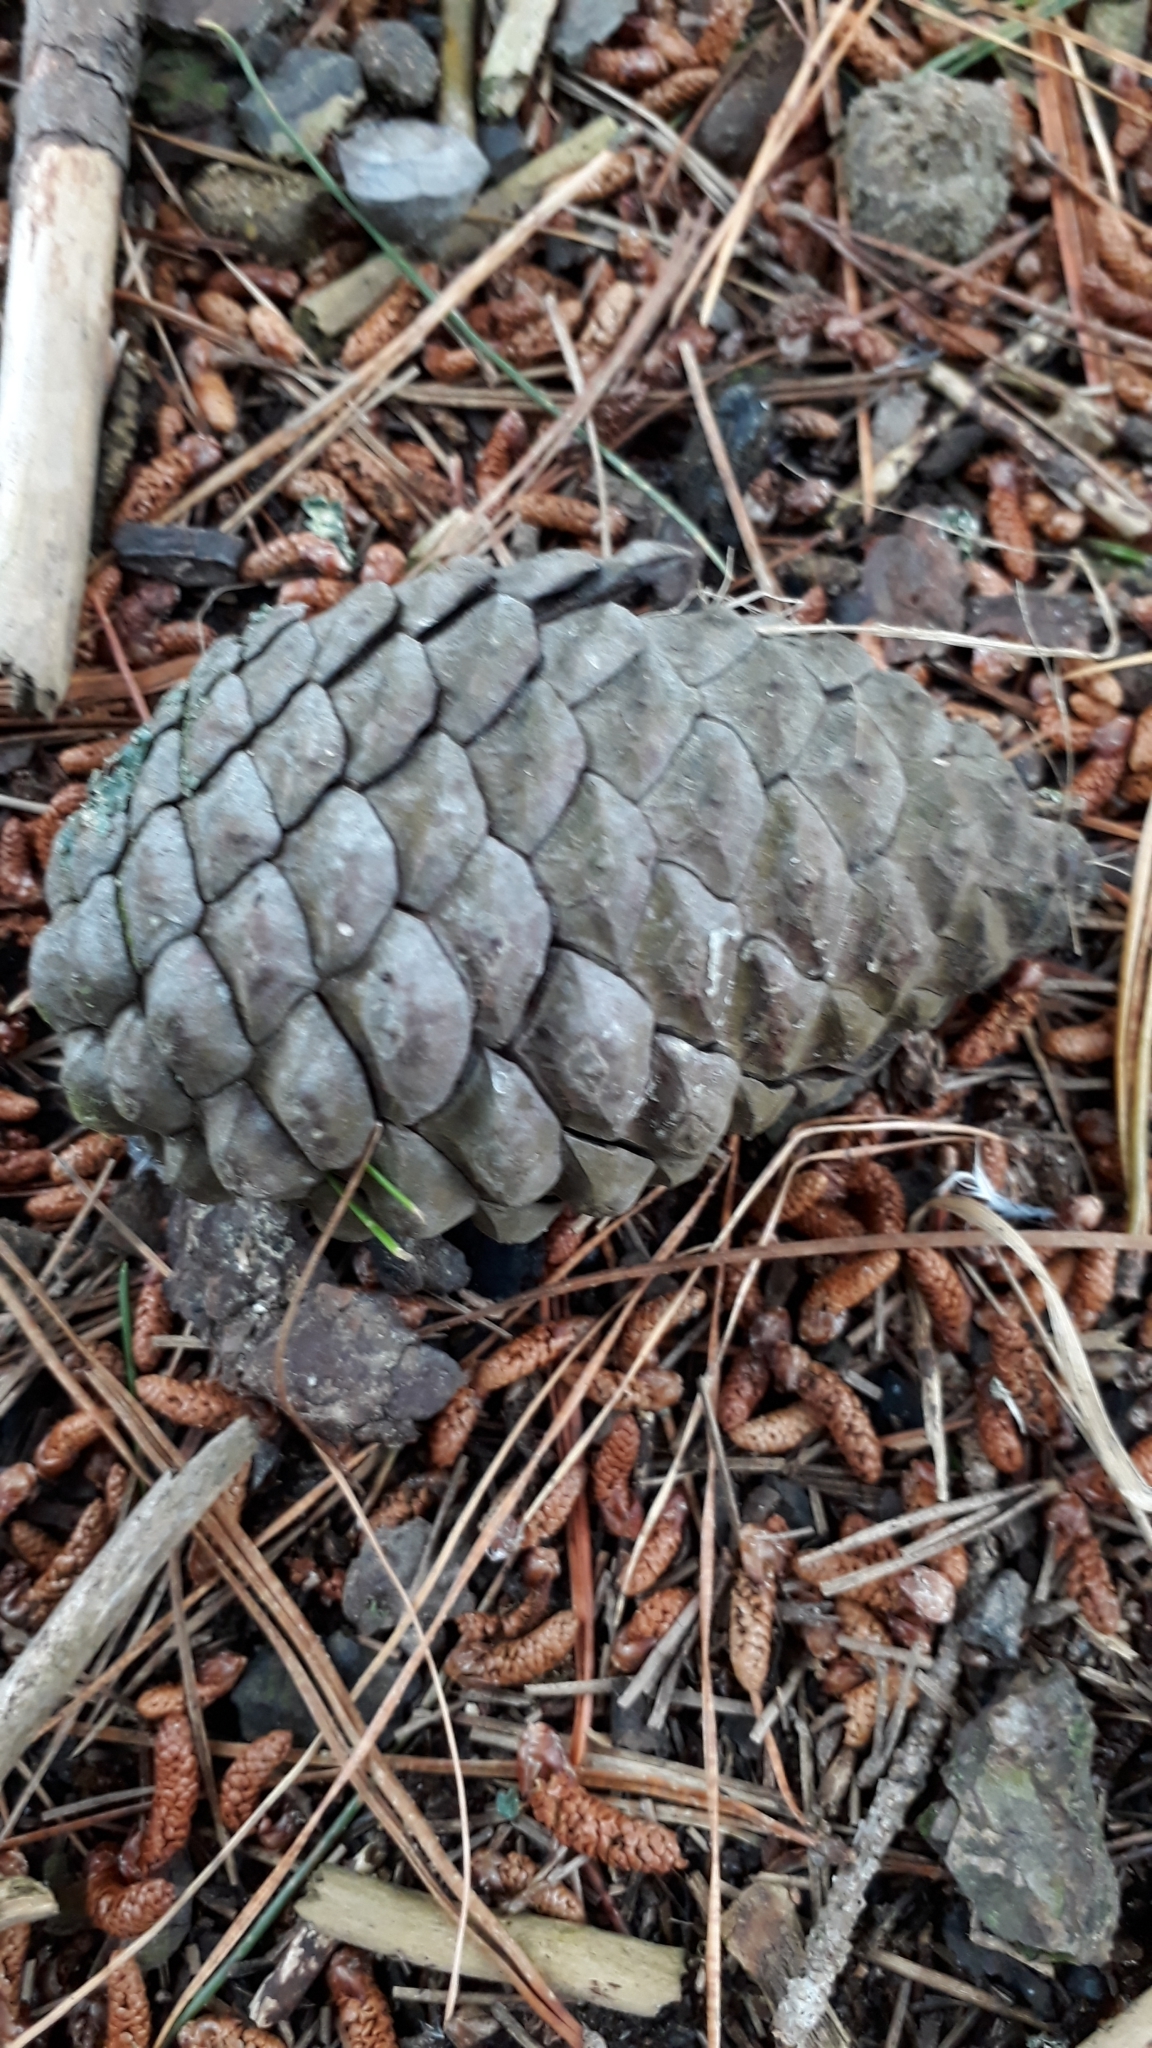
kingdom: Plantae
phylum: Tracheophyta
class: Pinopsida
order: Pinales
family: Pinaceae
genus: Pinus
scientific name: Pinus radiata
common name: Monterey pine
